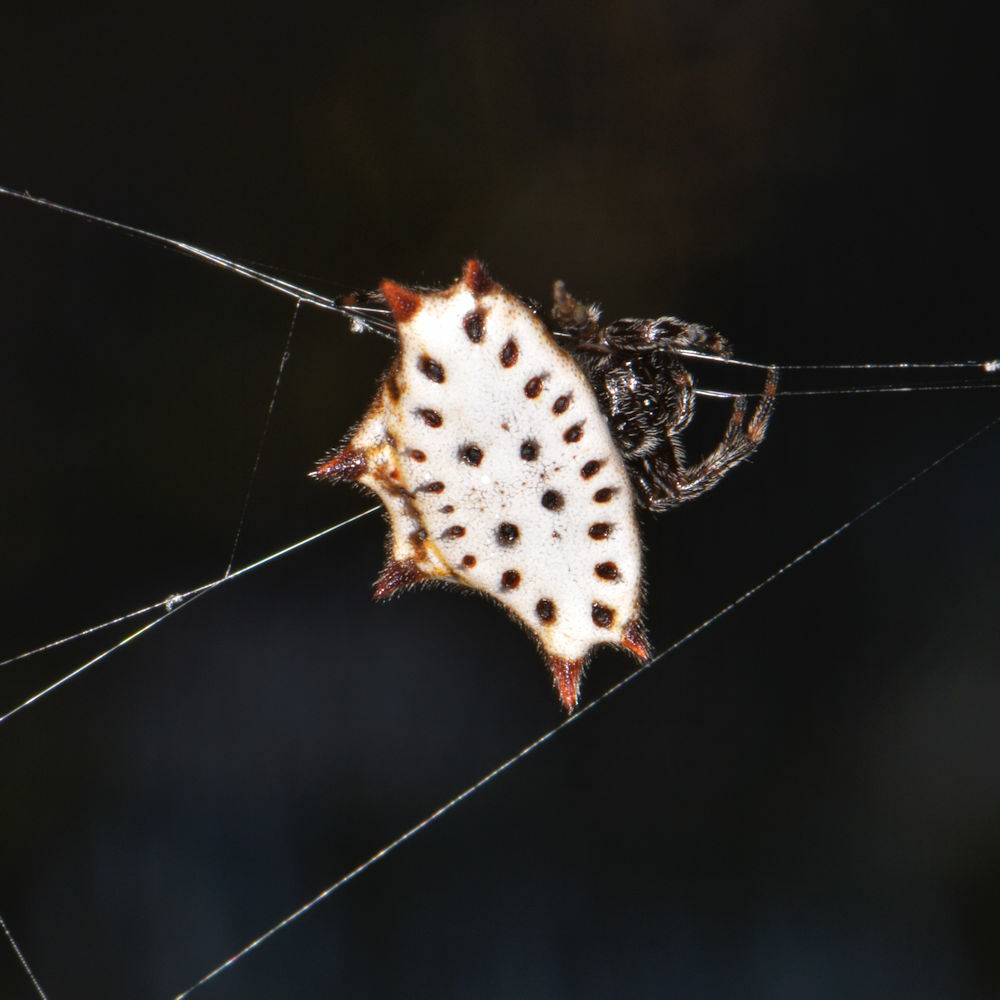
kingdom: Animalia
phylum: Arthropoda
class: Arachnida
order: Araneae
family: Araneidae
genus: Gasteracantha
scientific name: Gasteracantha cancriformis
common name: Orb weavers
